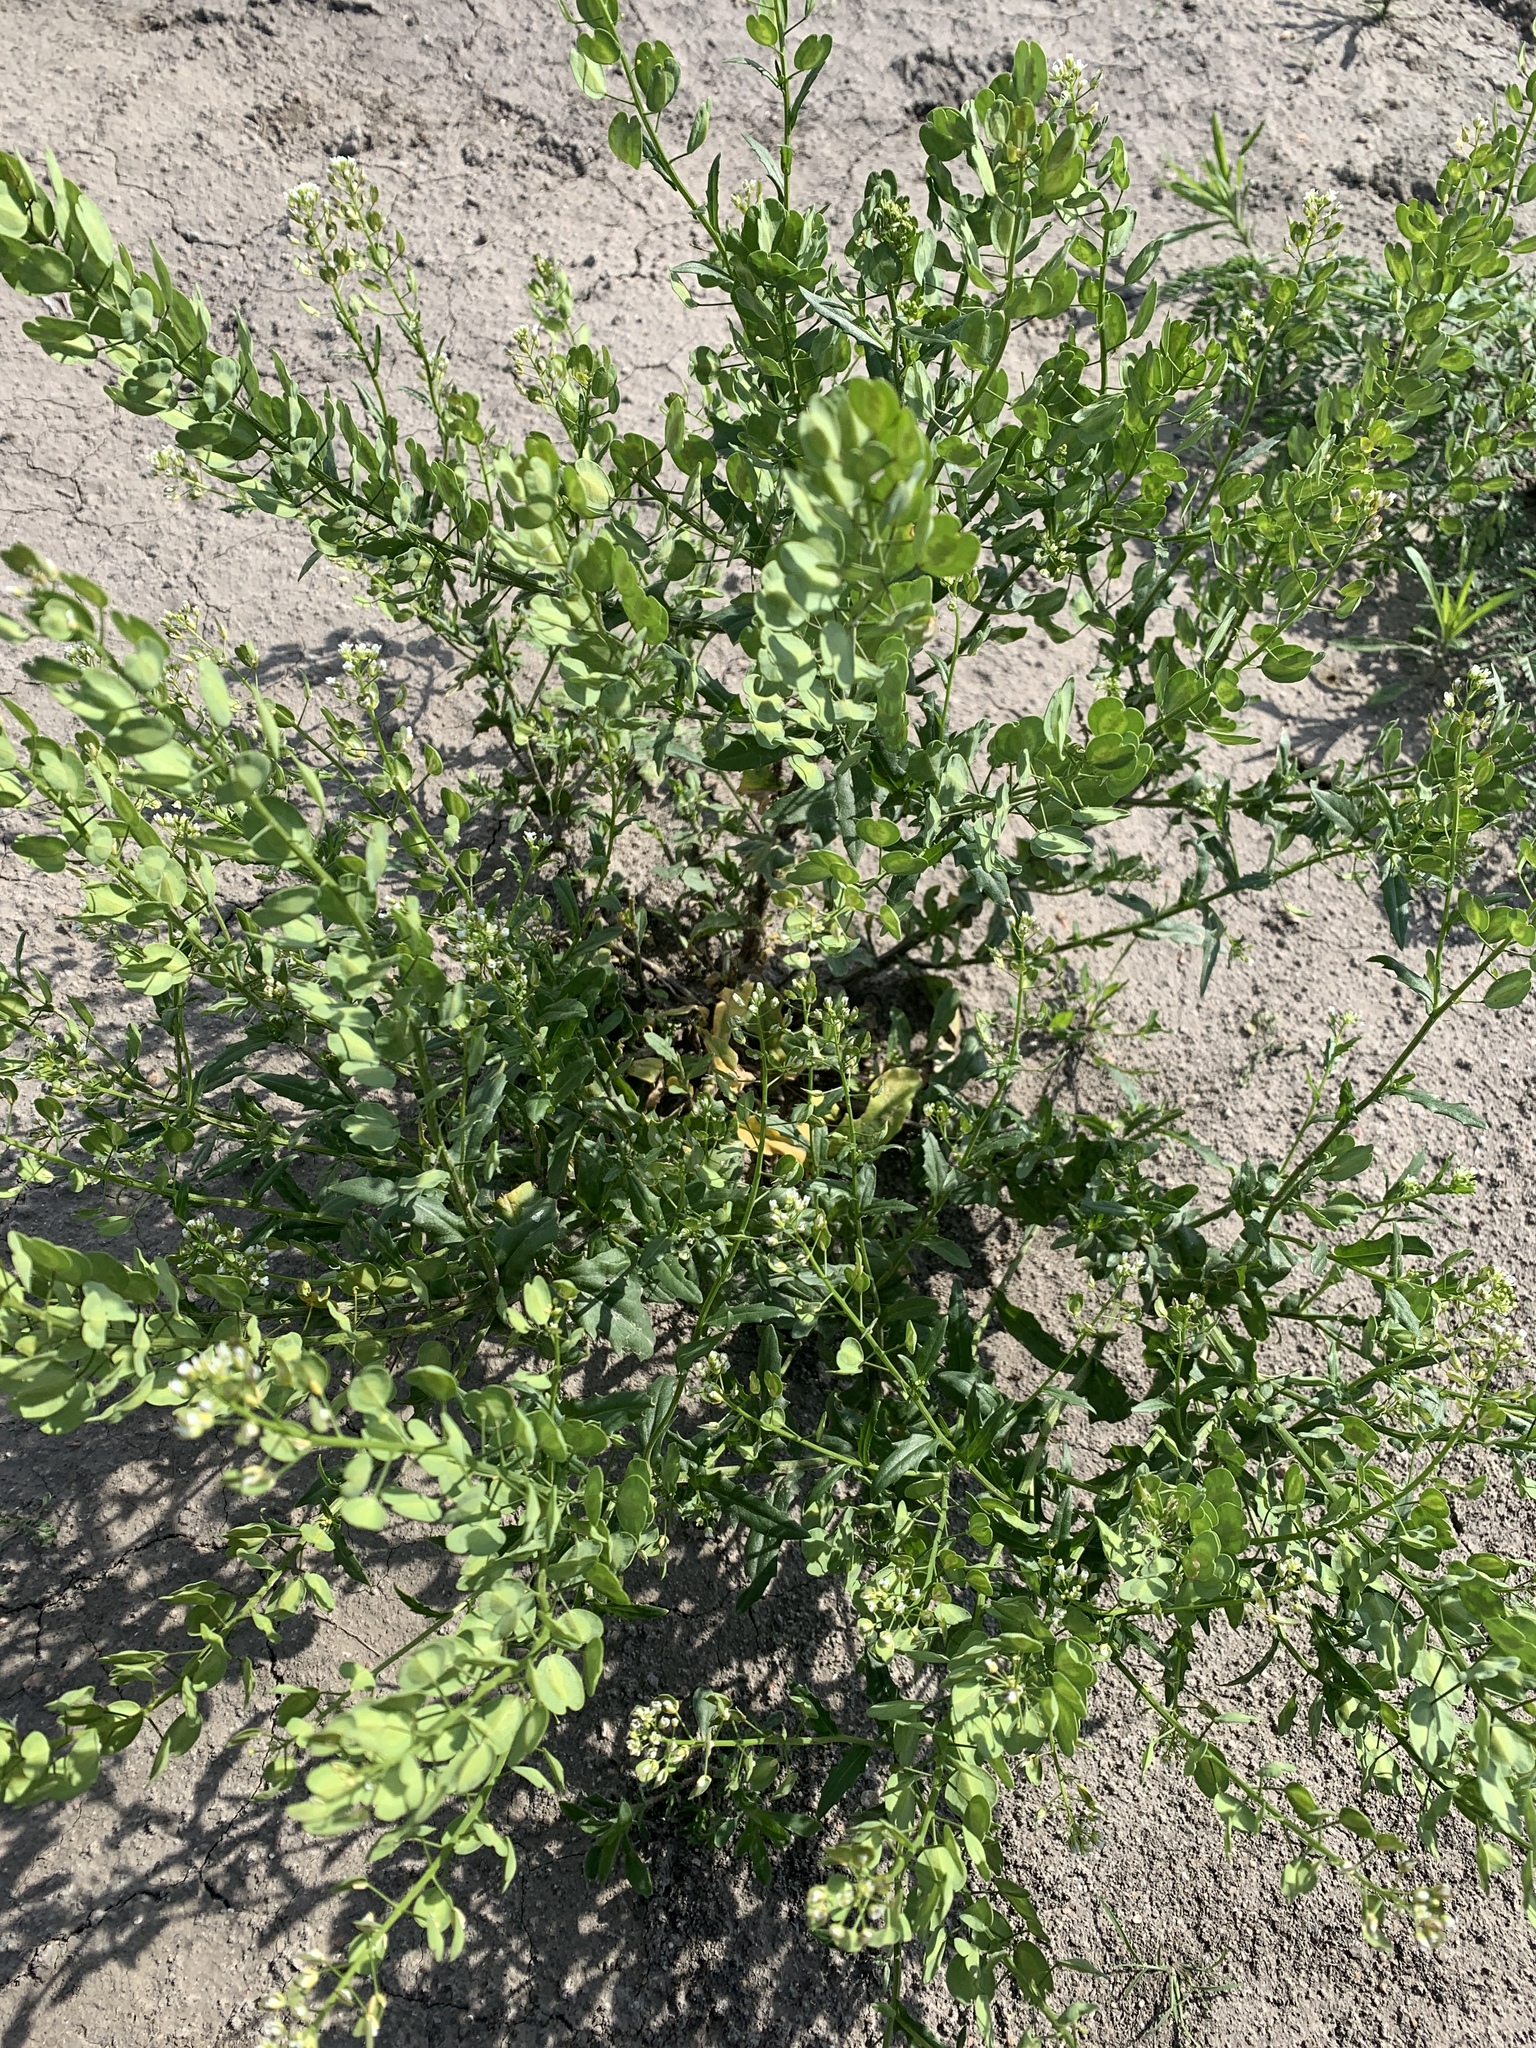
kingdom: Plantae
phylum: Tracheophyta
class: Magnoliopsida
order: Brassicales
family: Brassicaceae
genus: Thlaspi
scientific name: Thlaspi arvense
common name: Field pennycress
